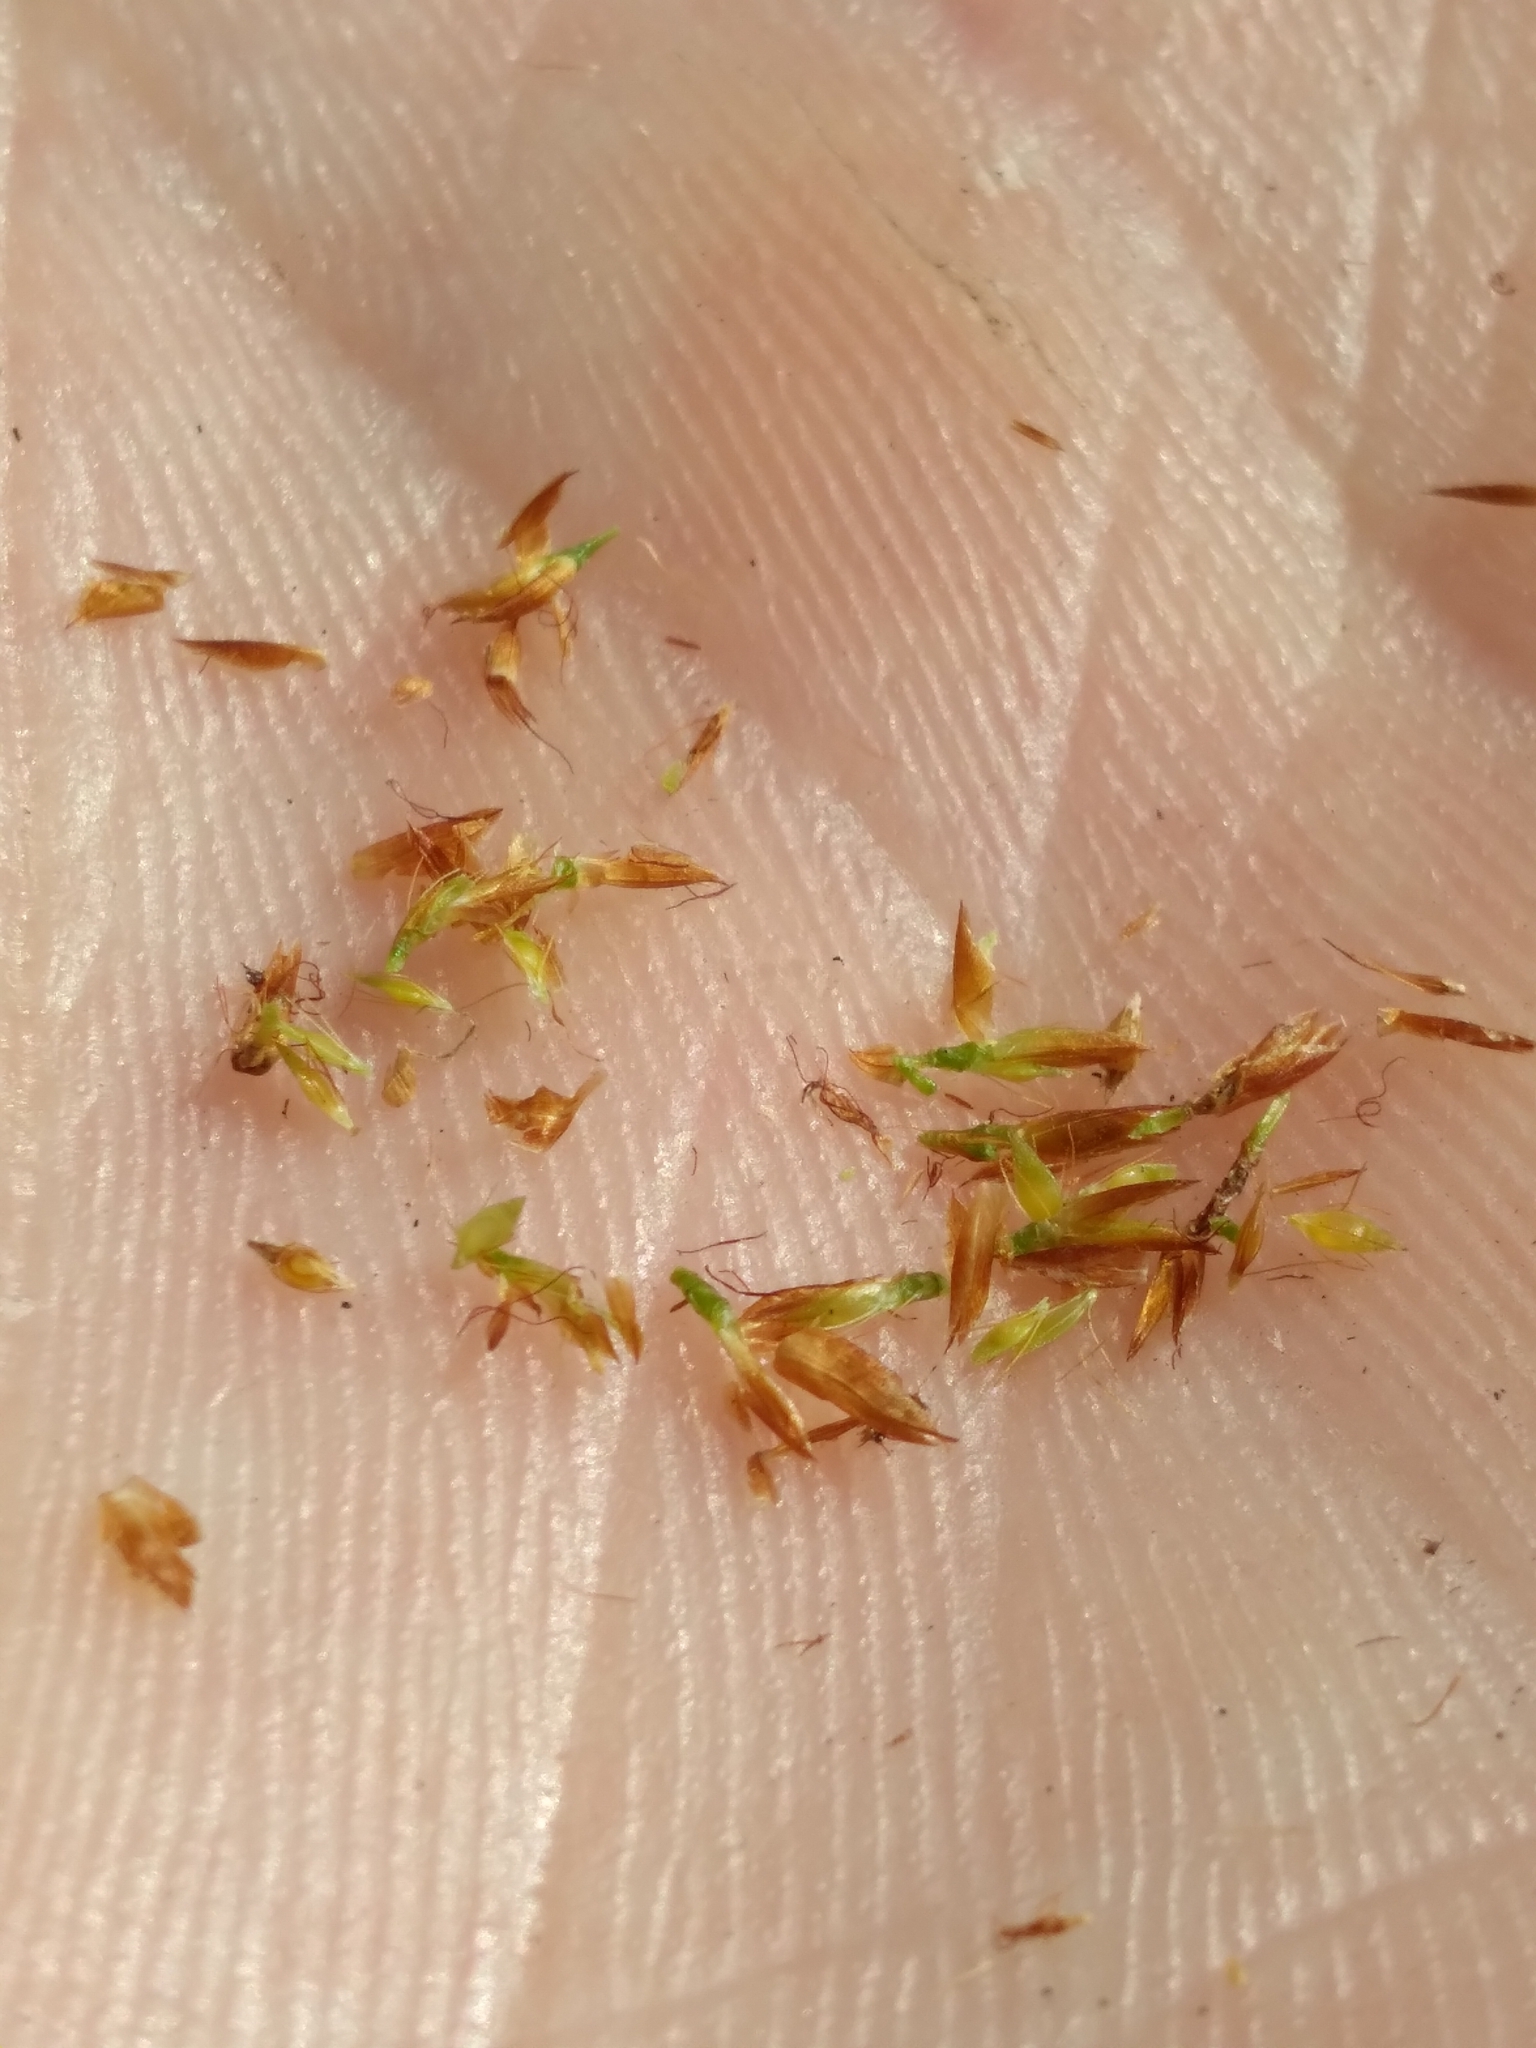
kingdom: Plantae
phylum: Tracheophyta
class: Liliopsida
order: Poales
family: Cyperaceae
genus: Rhynchospora
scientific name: Rhynchospora filifolia
